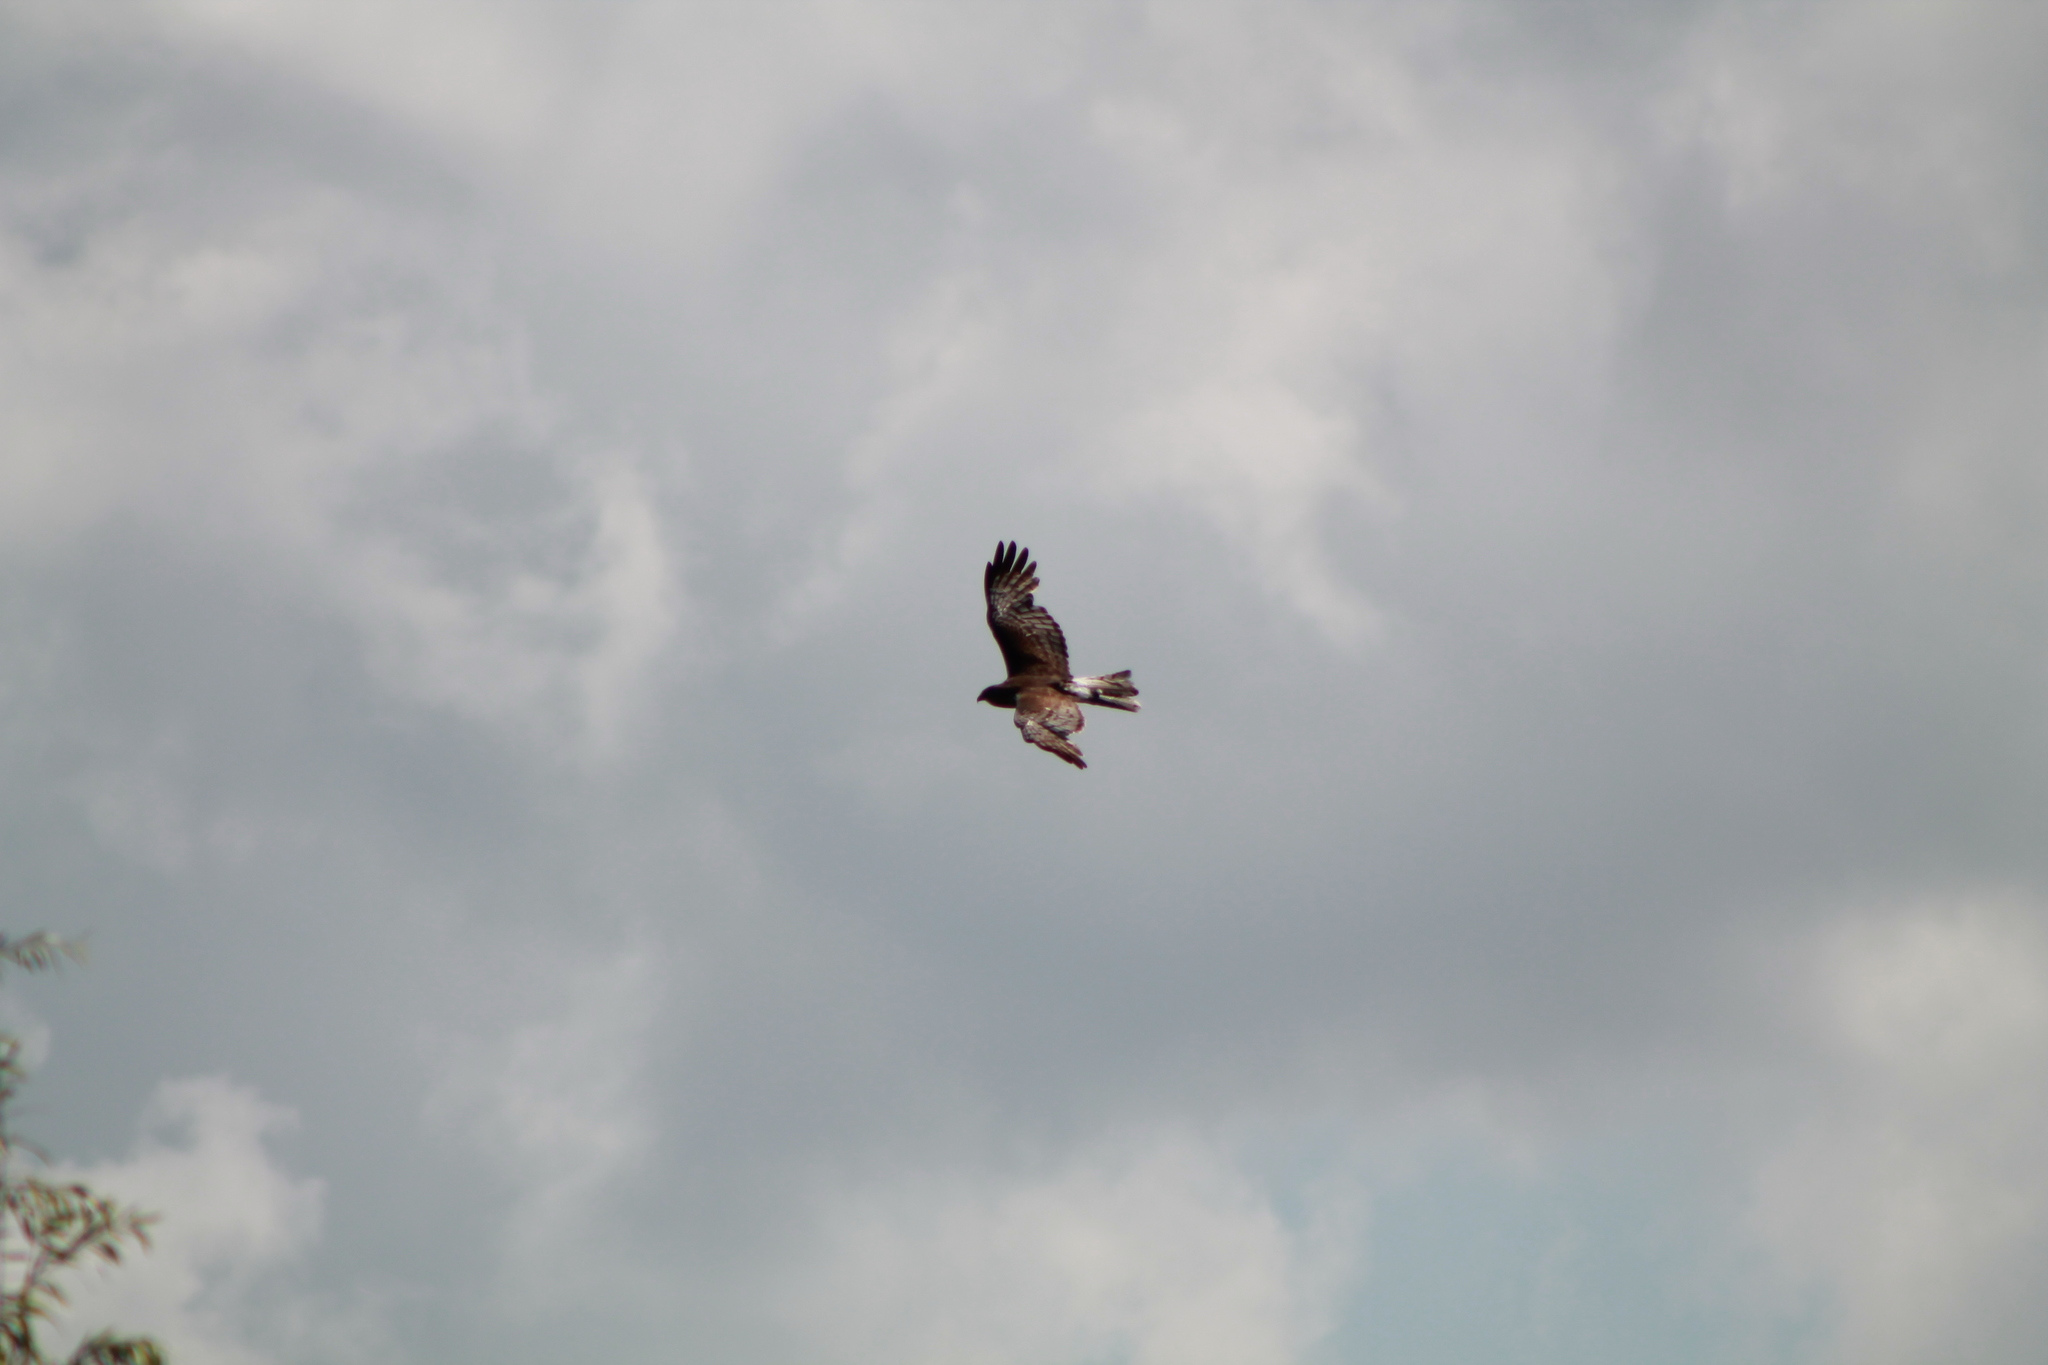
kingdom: Animalia
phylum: Chordata
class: Aves
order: Accipitriformes
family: Accipitridae
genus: Circus
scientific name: Circus approximans
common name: Swamp harrier
